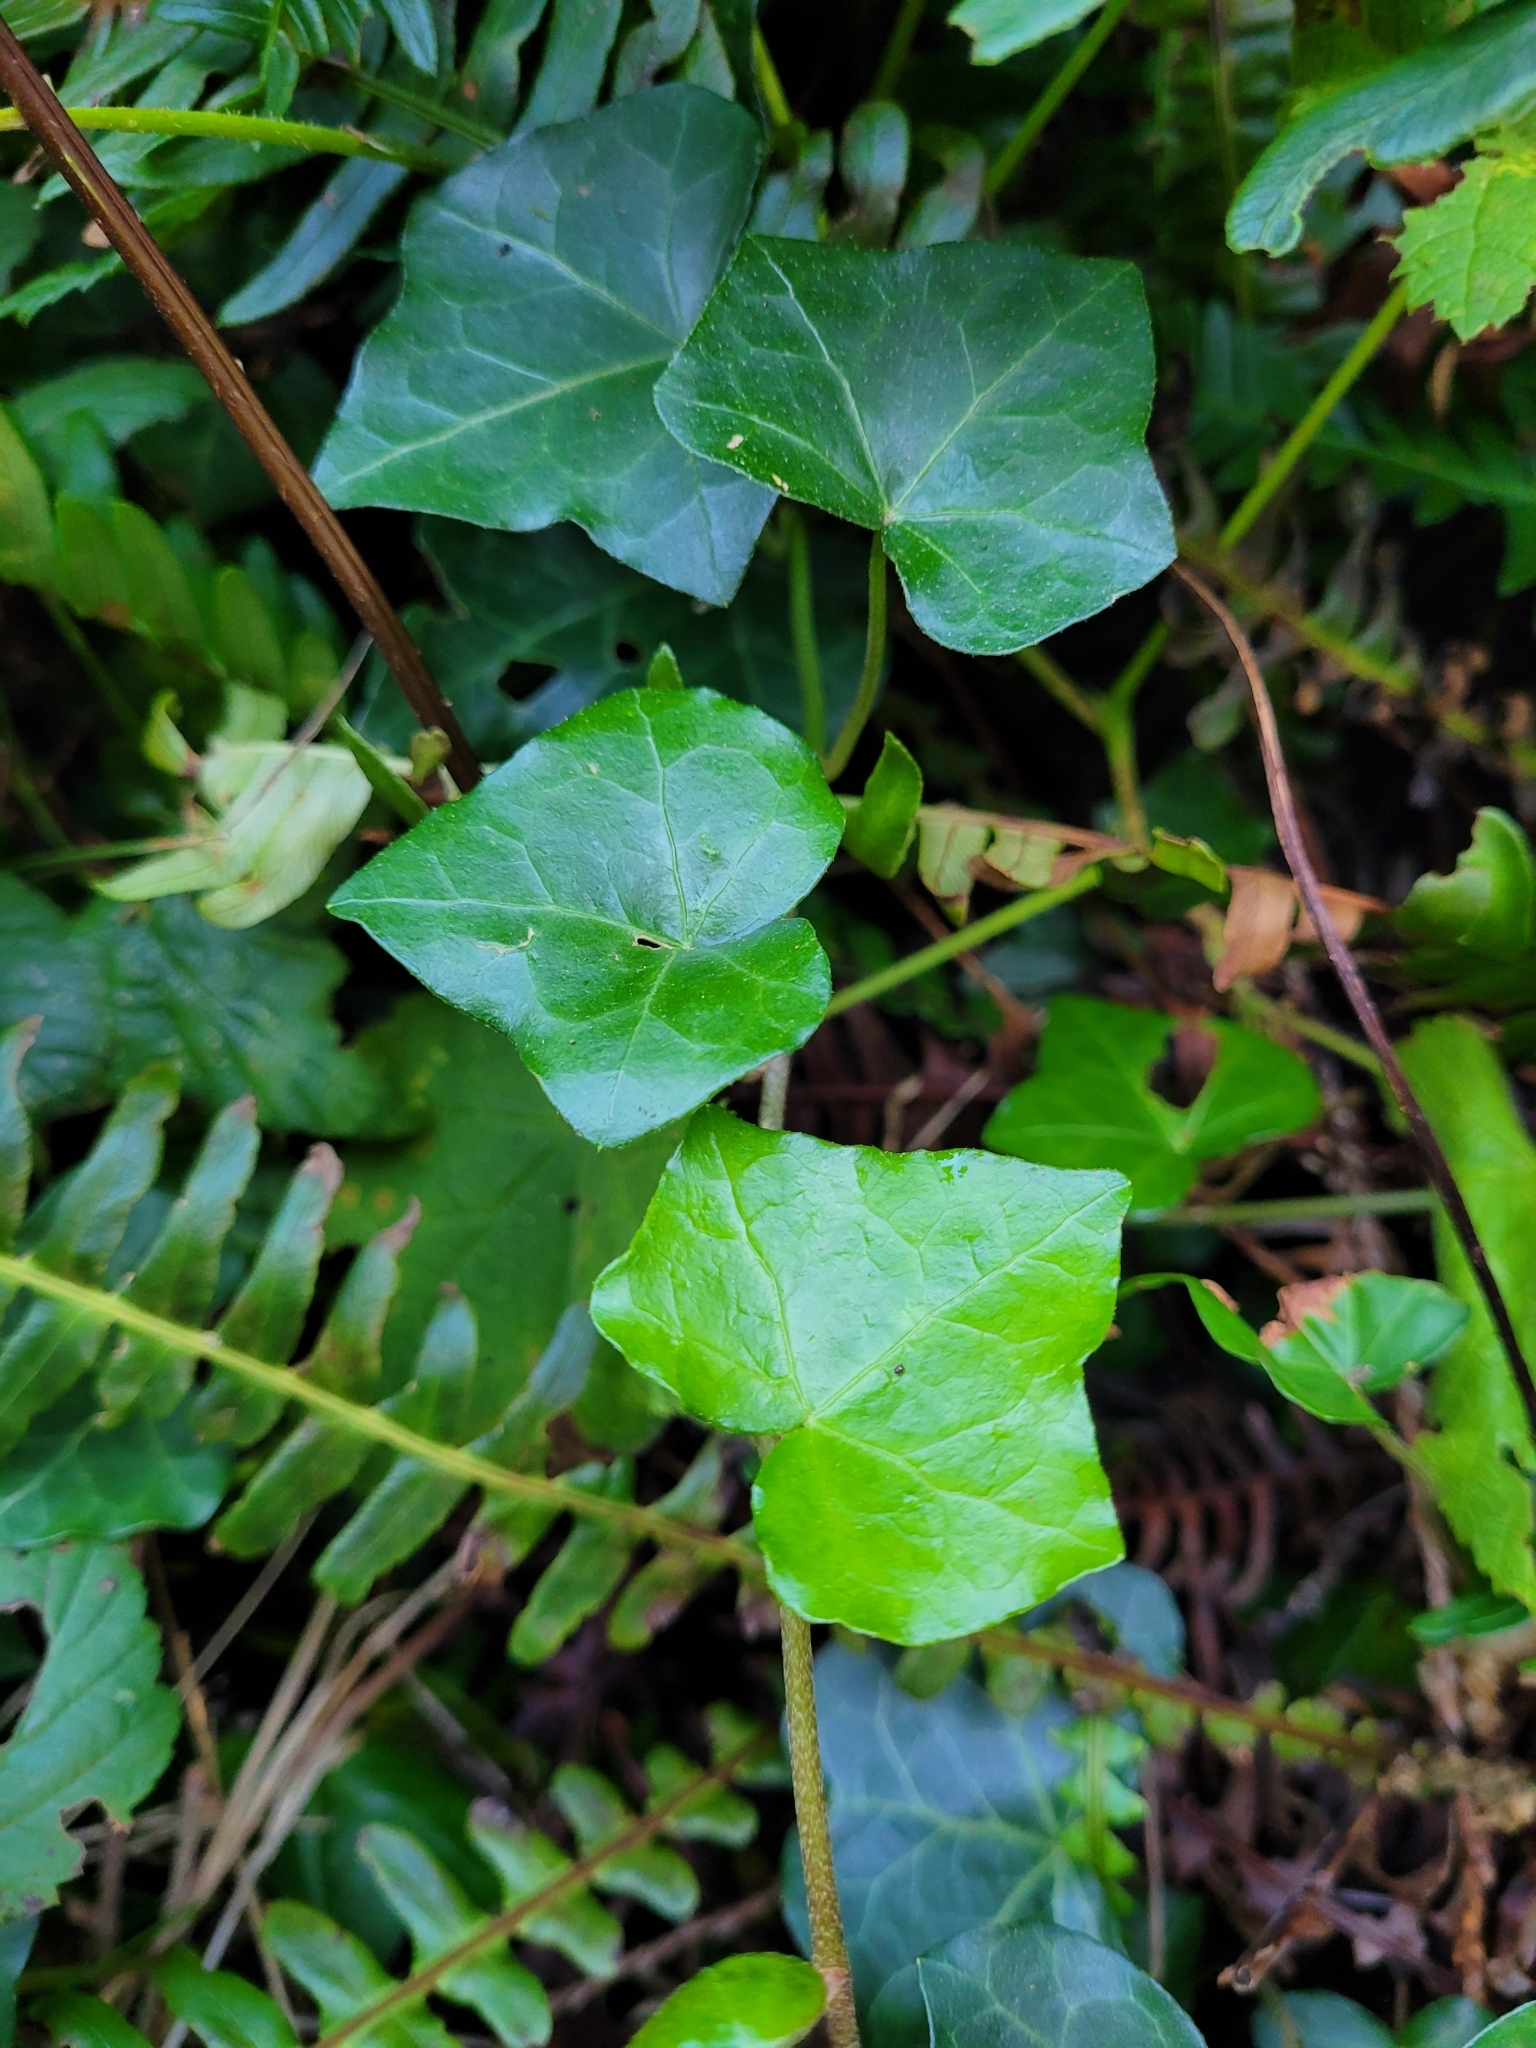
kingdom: Plantae
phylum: Tracheophyta
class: Magnoliopsida
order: Apiales
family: Araliaceae
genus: Hedera
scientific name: Hedera helix
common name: Ivy
